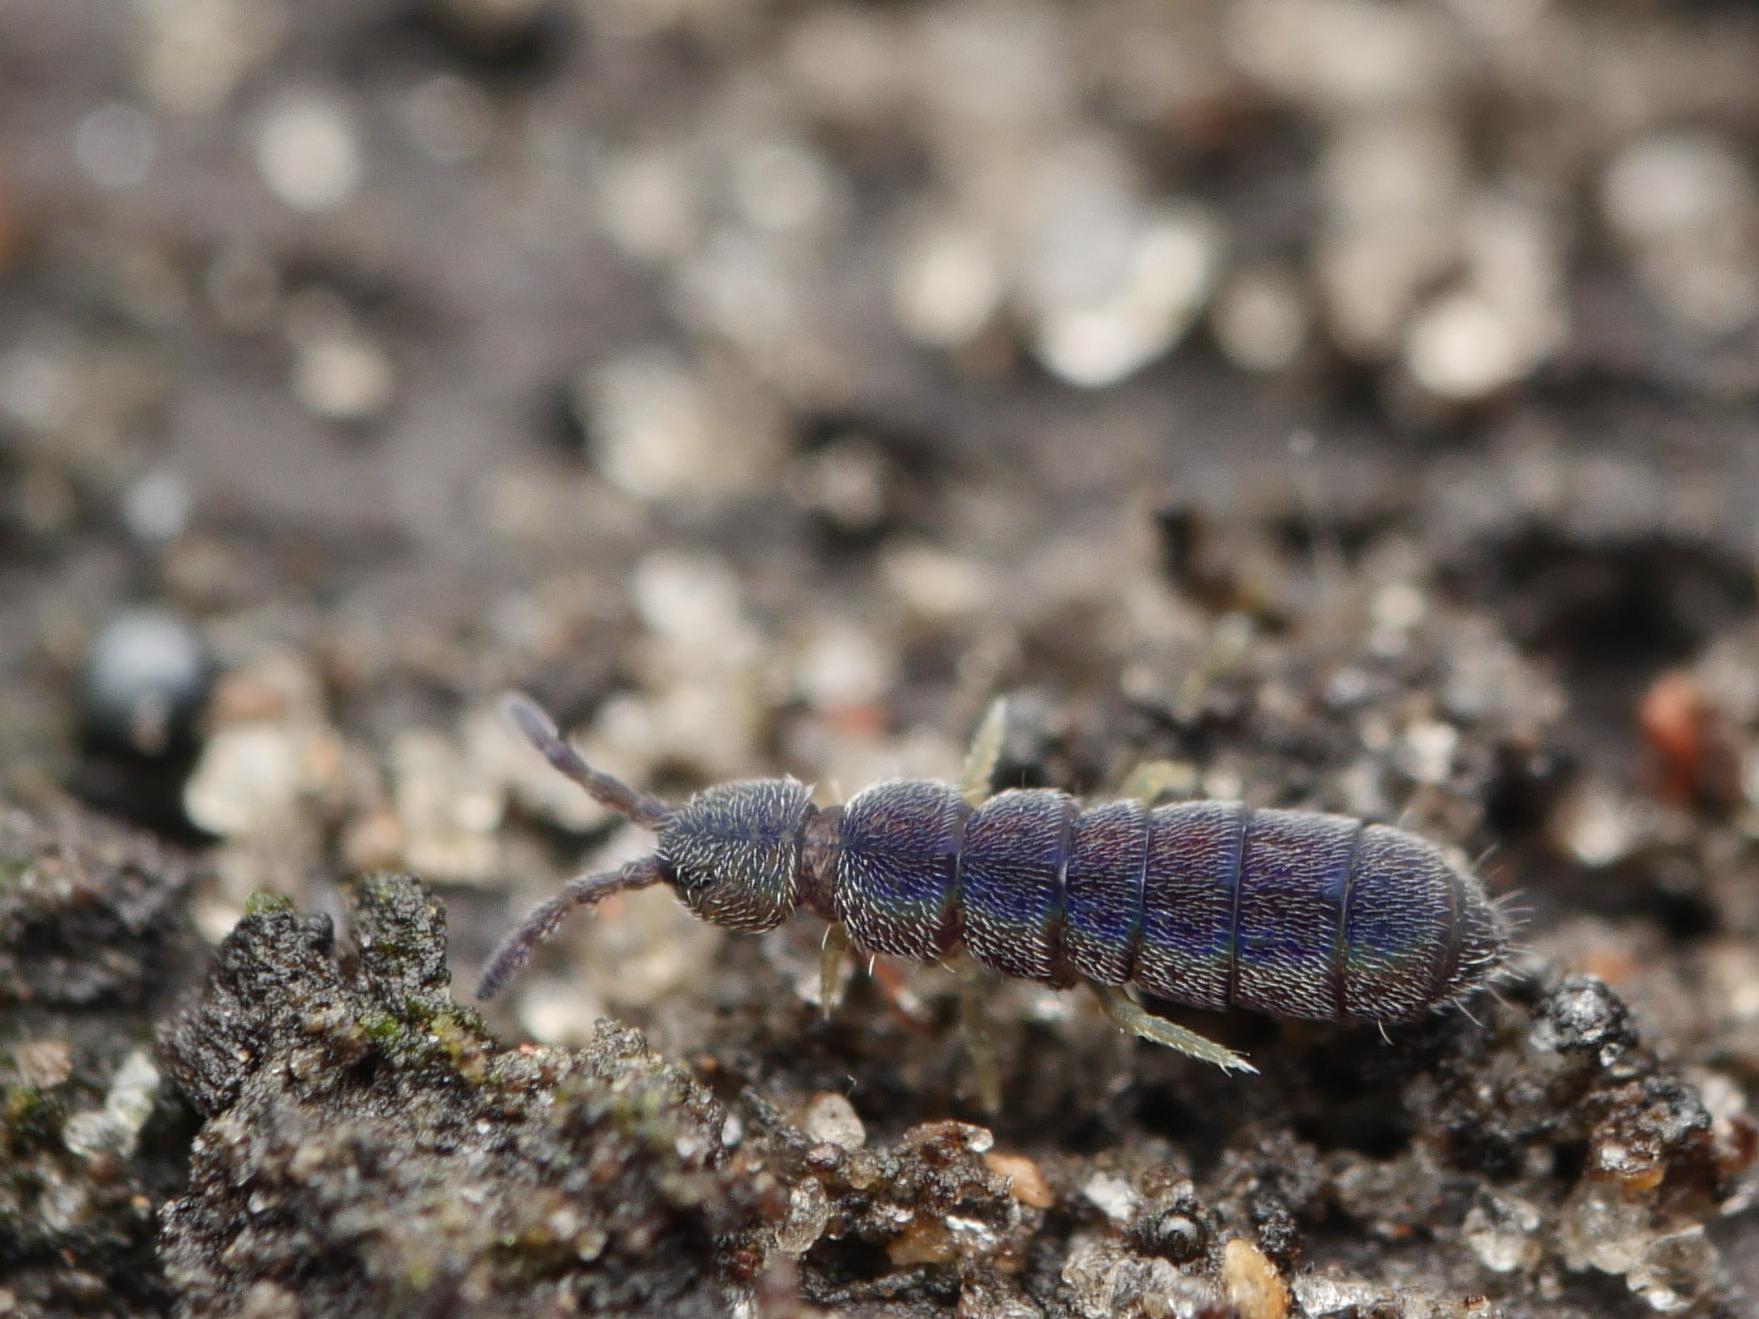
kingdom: Animalia
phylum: Arthropoda
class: Collembola
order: Entomobryomorpha
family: Isotomidae
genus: Vertagopus
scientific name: Vertagopus asiaticus
